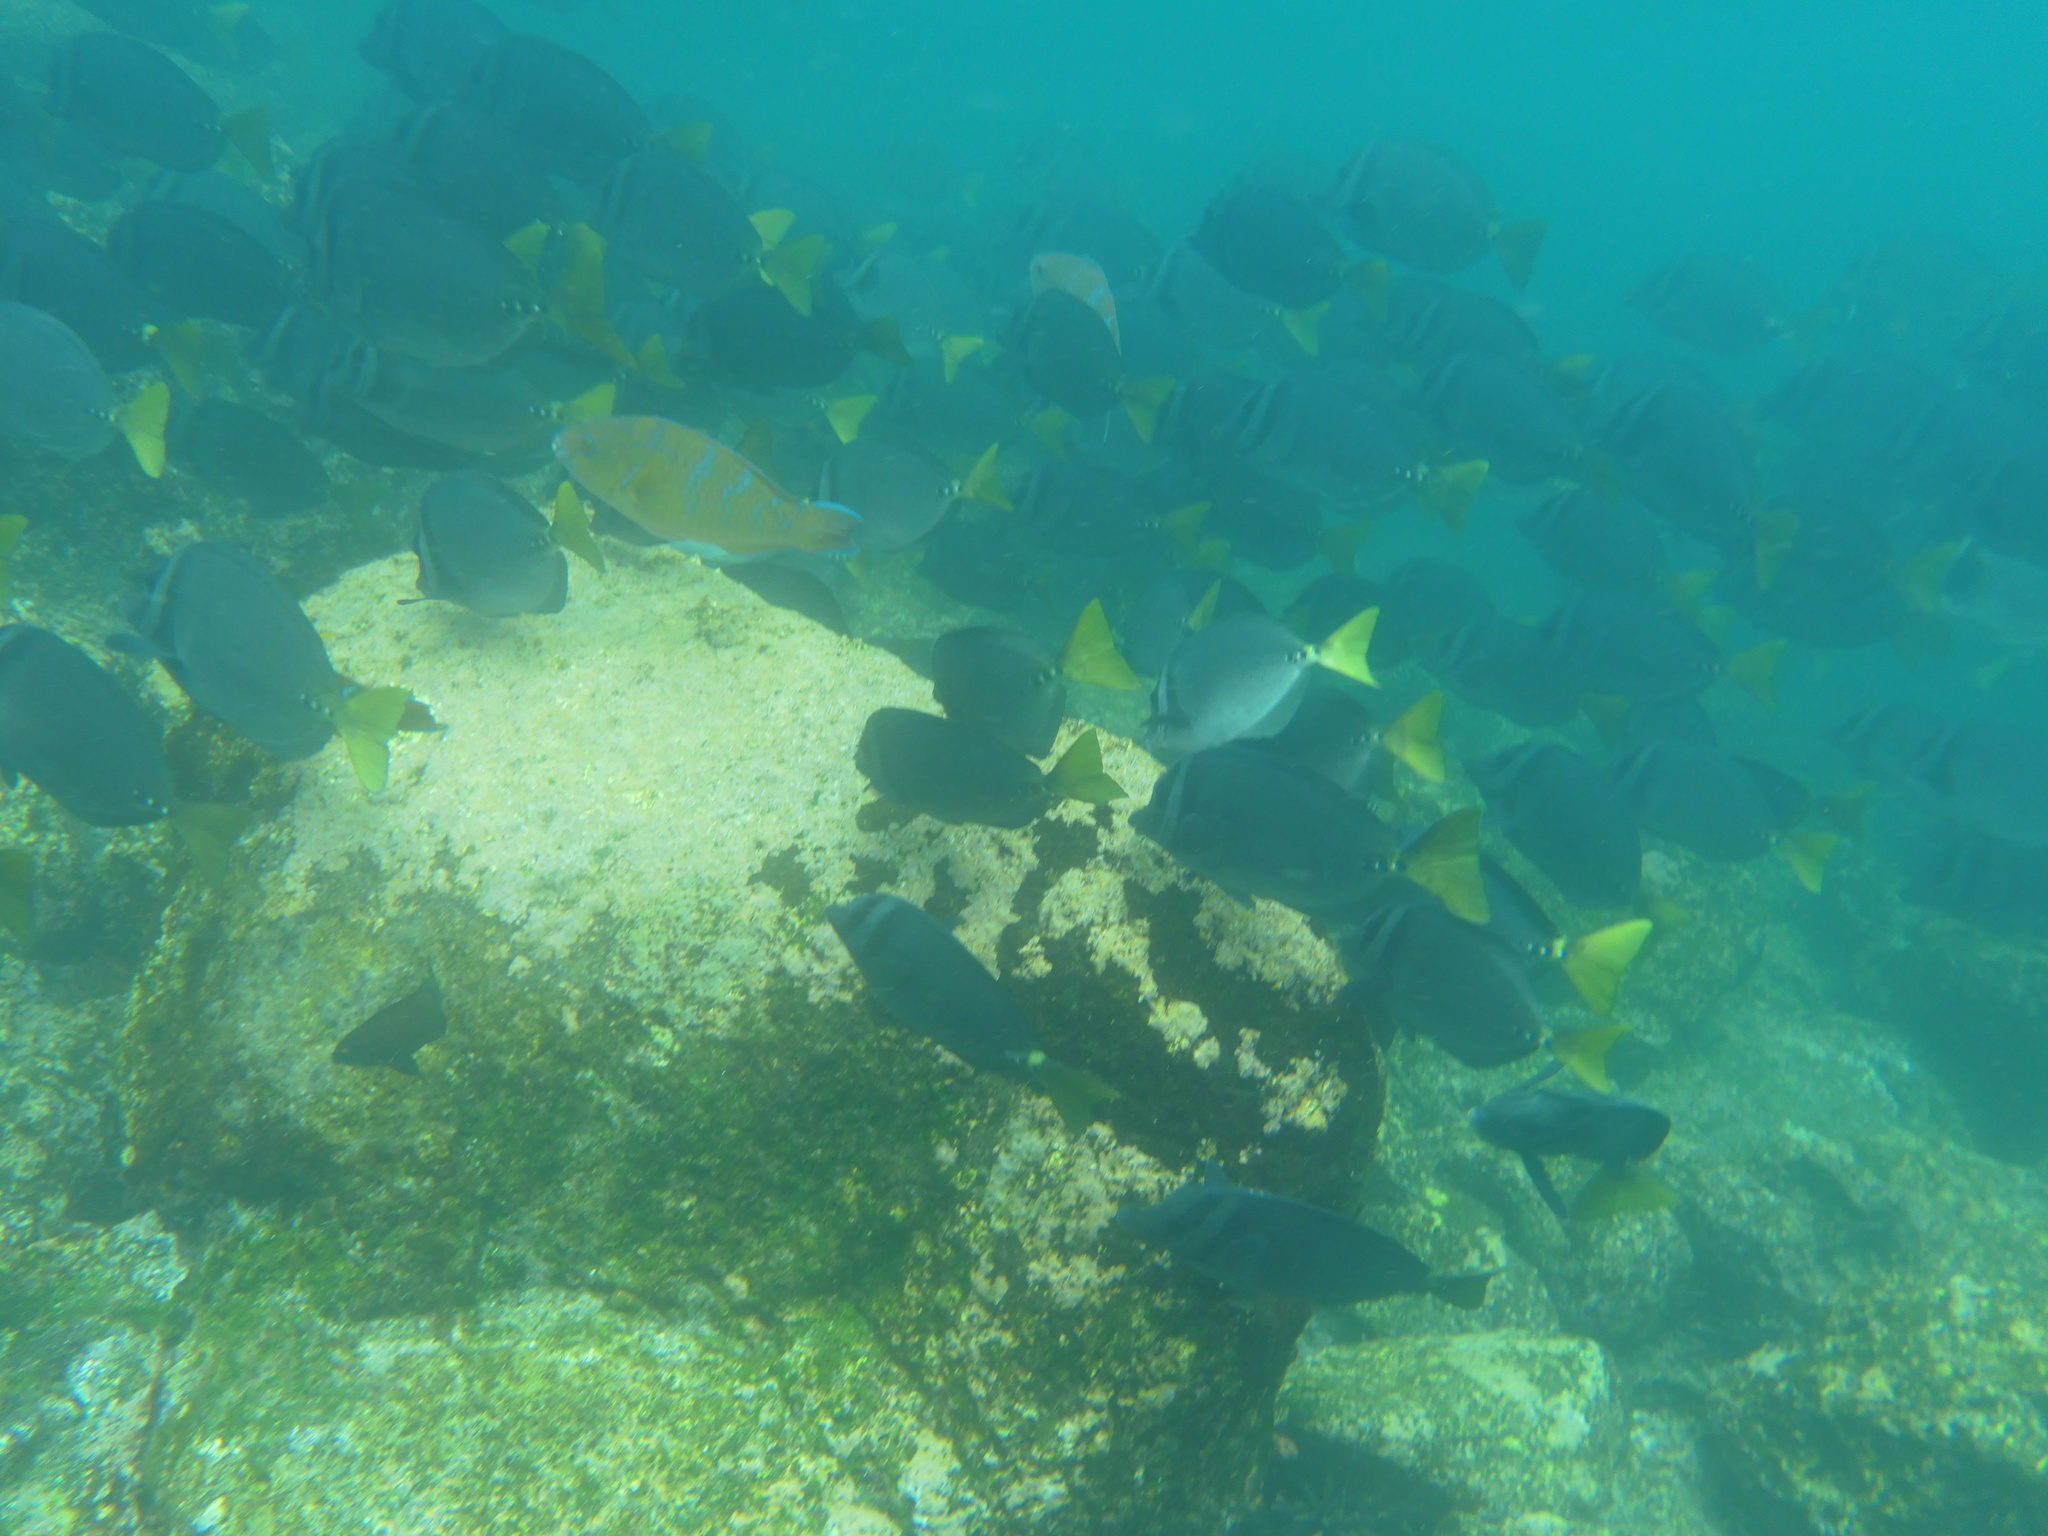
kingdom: Animalia
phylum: Chordata
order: Perciformes
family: Acanthuridae
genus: Prionurus
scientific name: Prionurus laticlavius
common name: Razor surgeonfish
